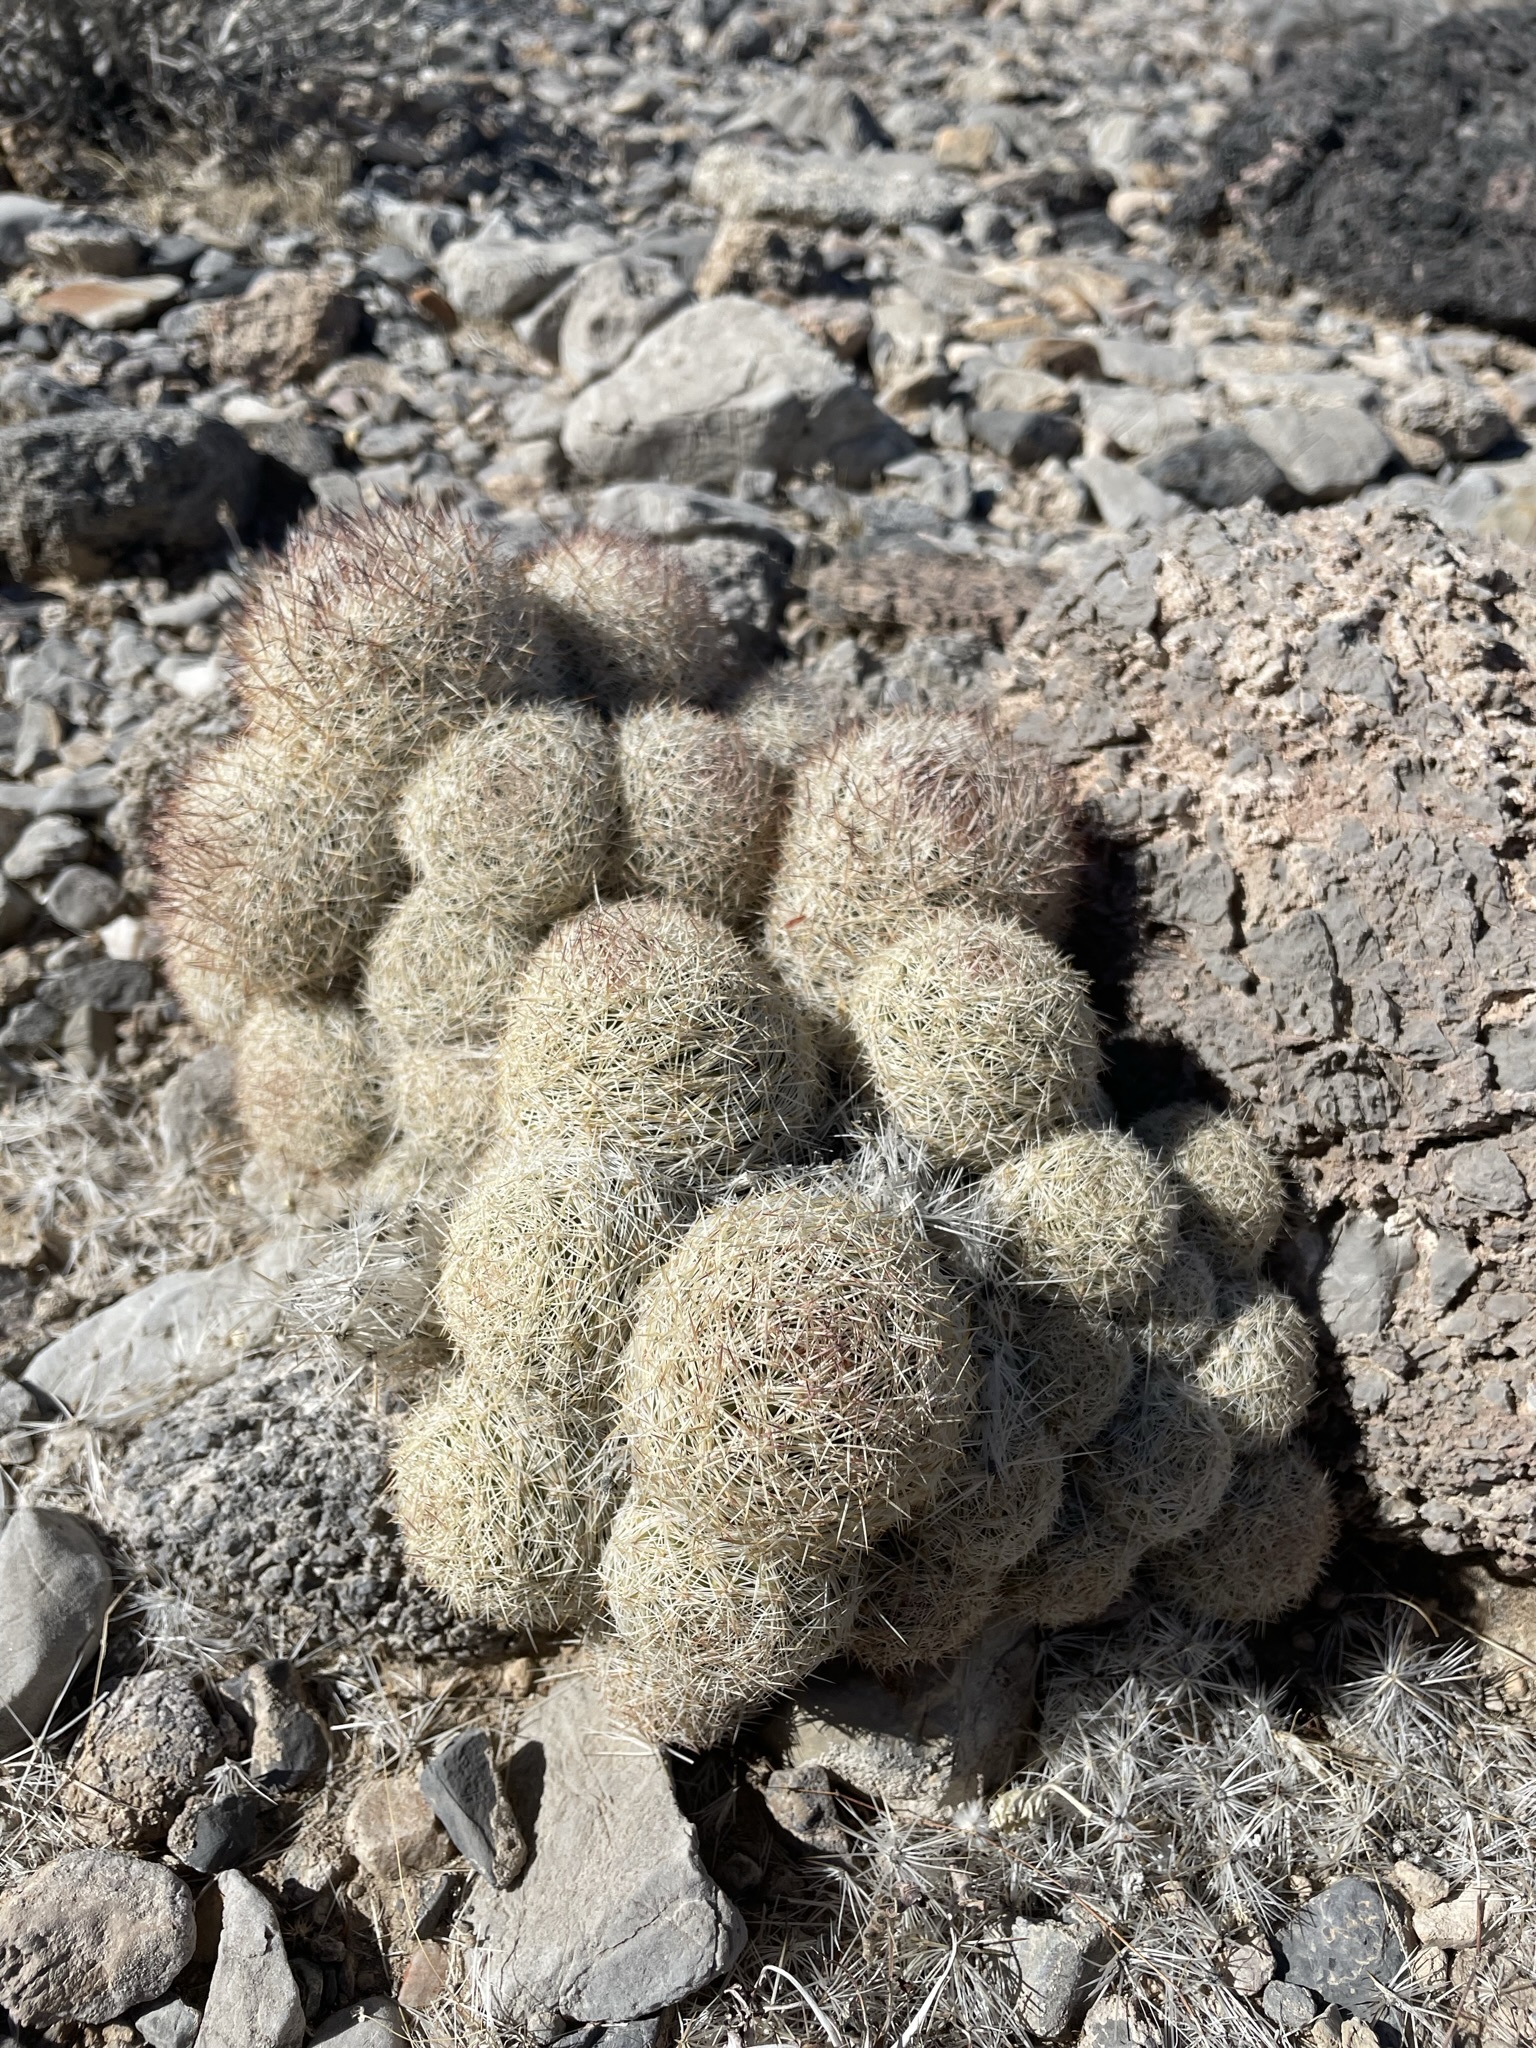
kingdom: Plantae
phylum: Tracheophyta
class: Magnoliopsida
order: Caryophyllales
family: Cactaceae
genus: Pelecyphora
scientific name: Pelecyphora dasyacantha
